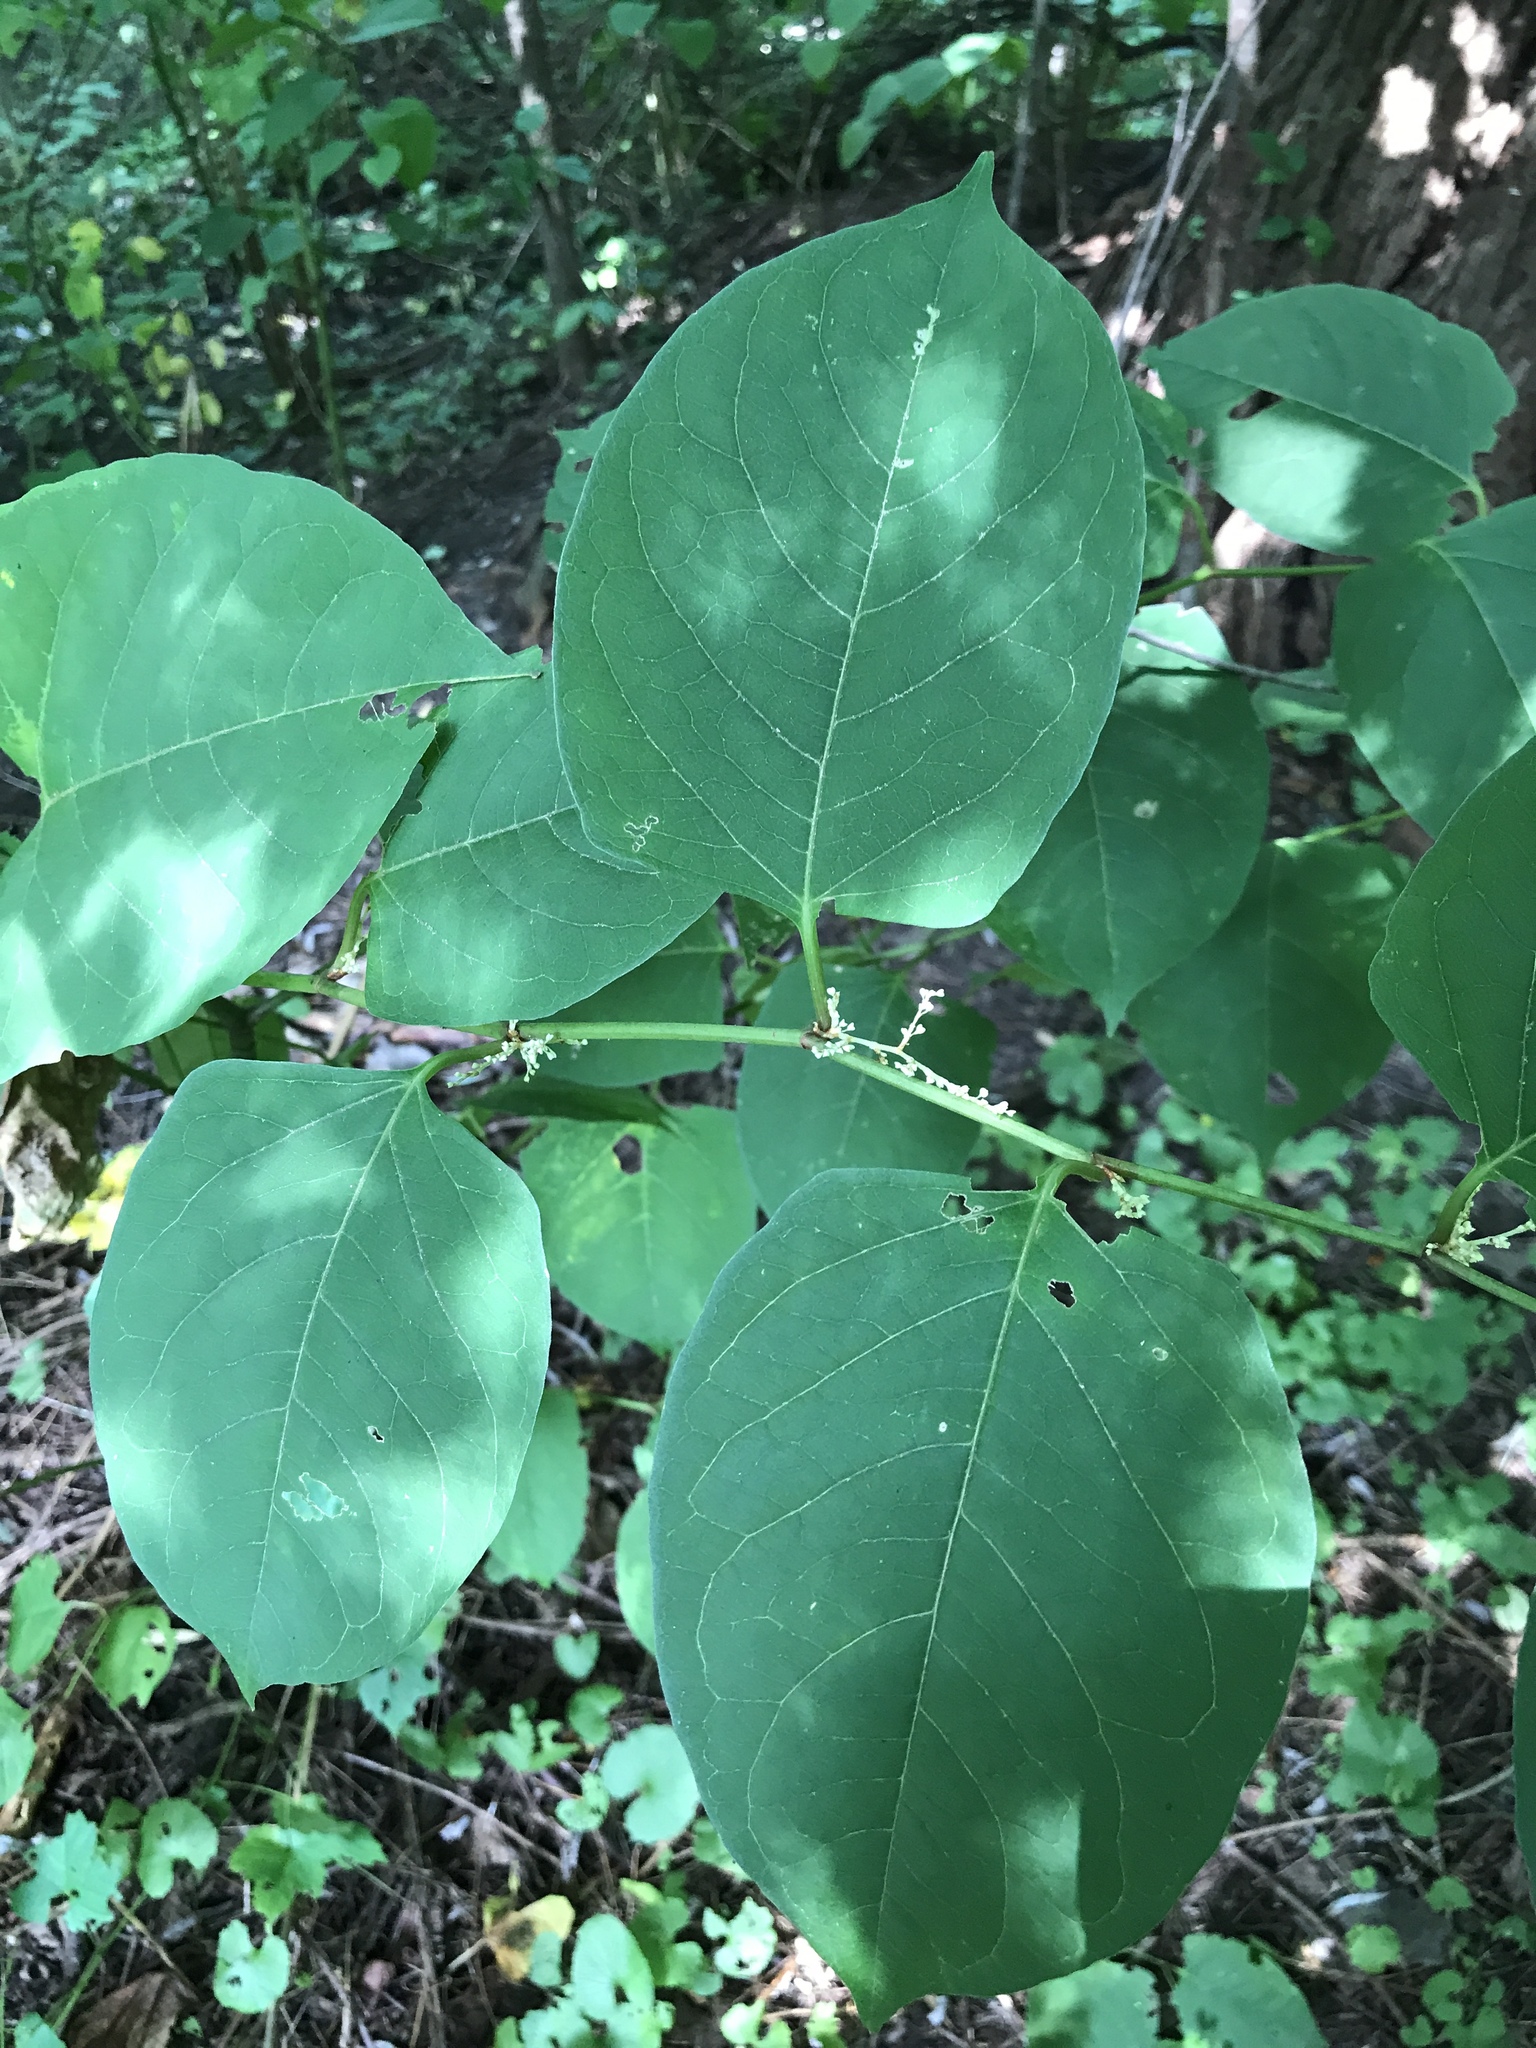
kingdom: Plantae
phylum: Tracheophyta
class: Magnoliopsida
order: Caryophyllales
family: Polygonaceae
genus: Reynoutria
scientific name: Reynoutria japonica
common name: Japanese knotweed
